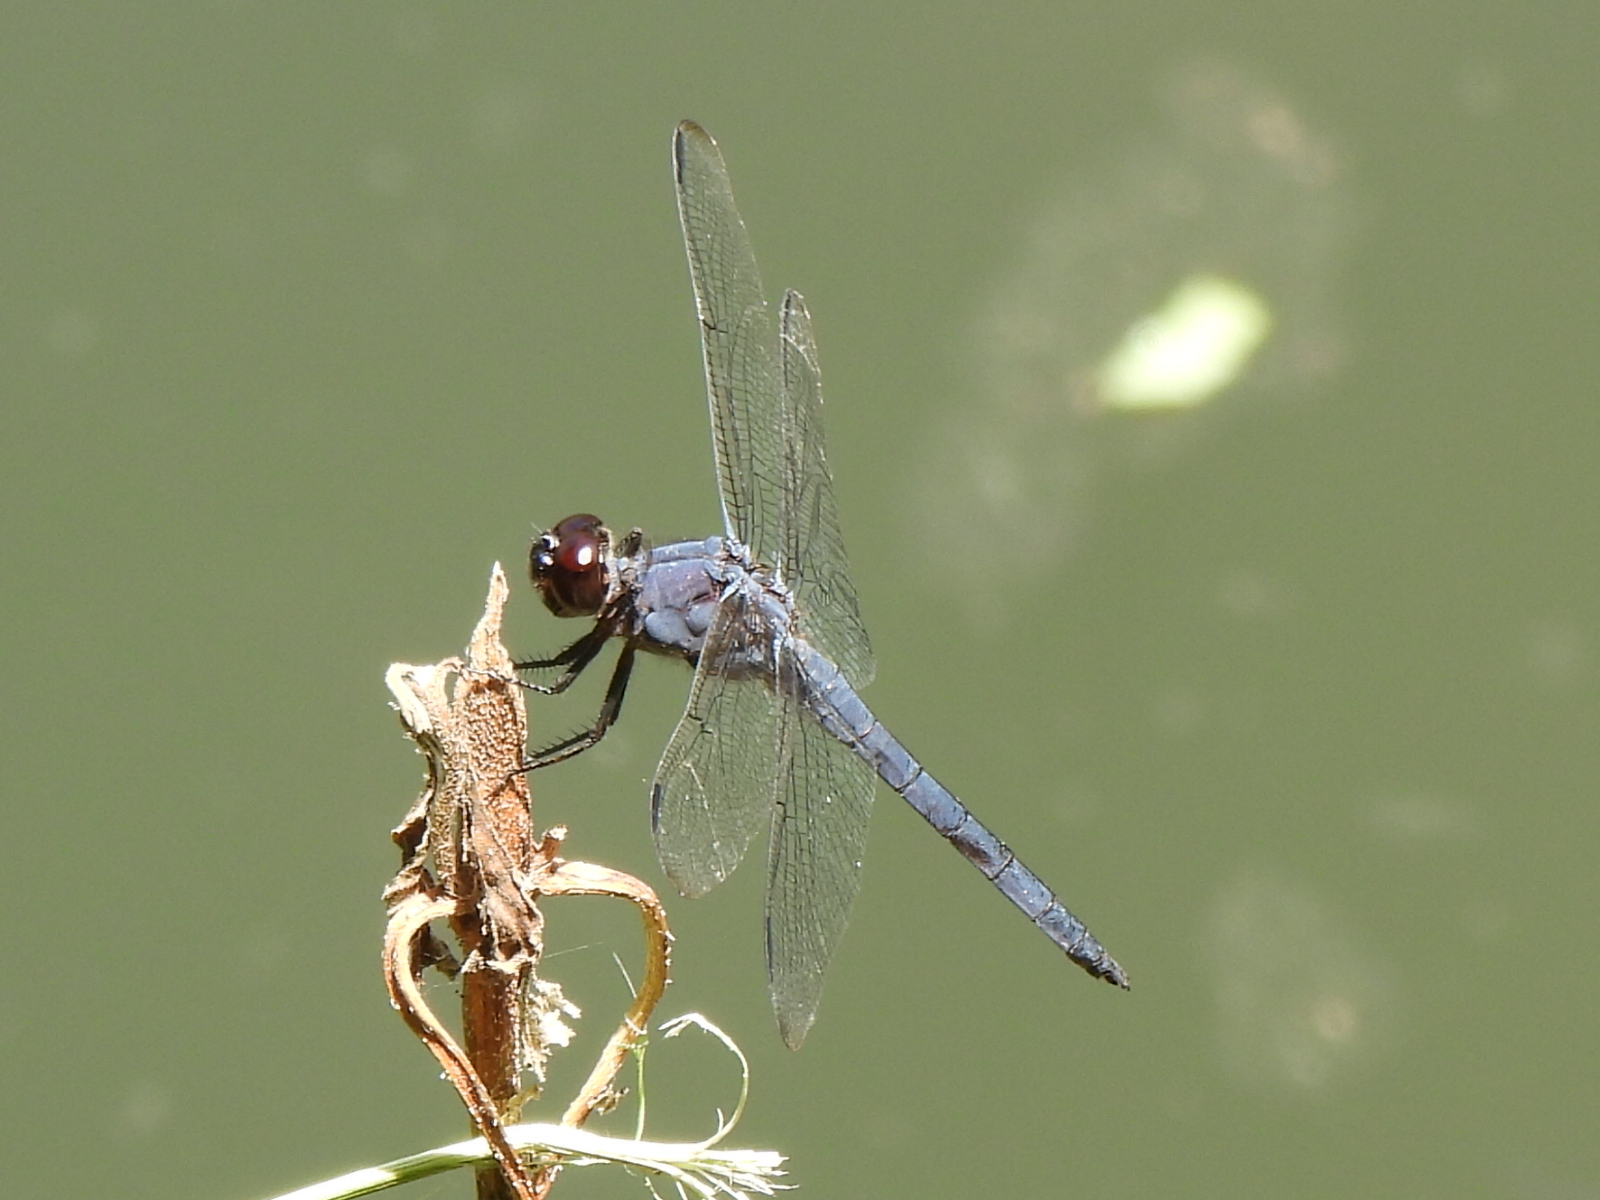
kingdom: Animalia
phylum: Arthropoda
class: Insecta
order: Odonata
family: Libellulidae
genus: Libellula
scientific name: Libellula incesta
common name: Slaty skimmer
